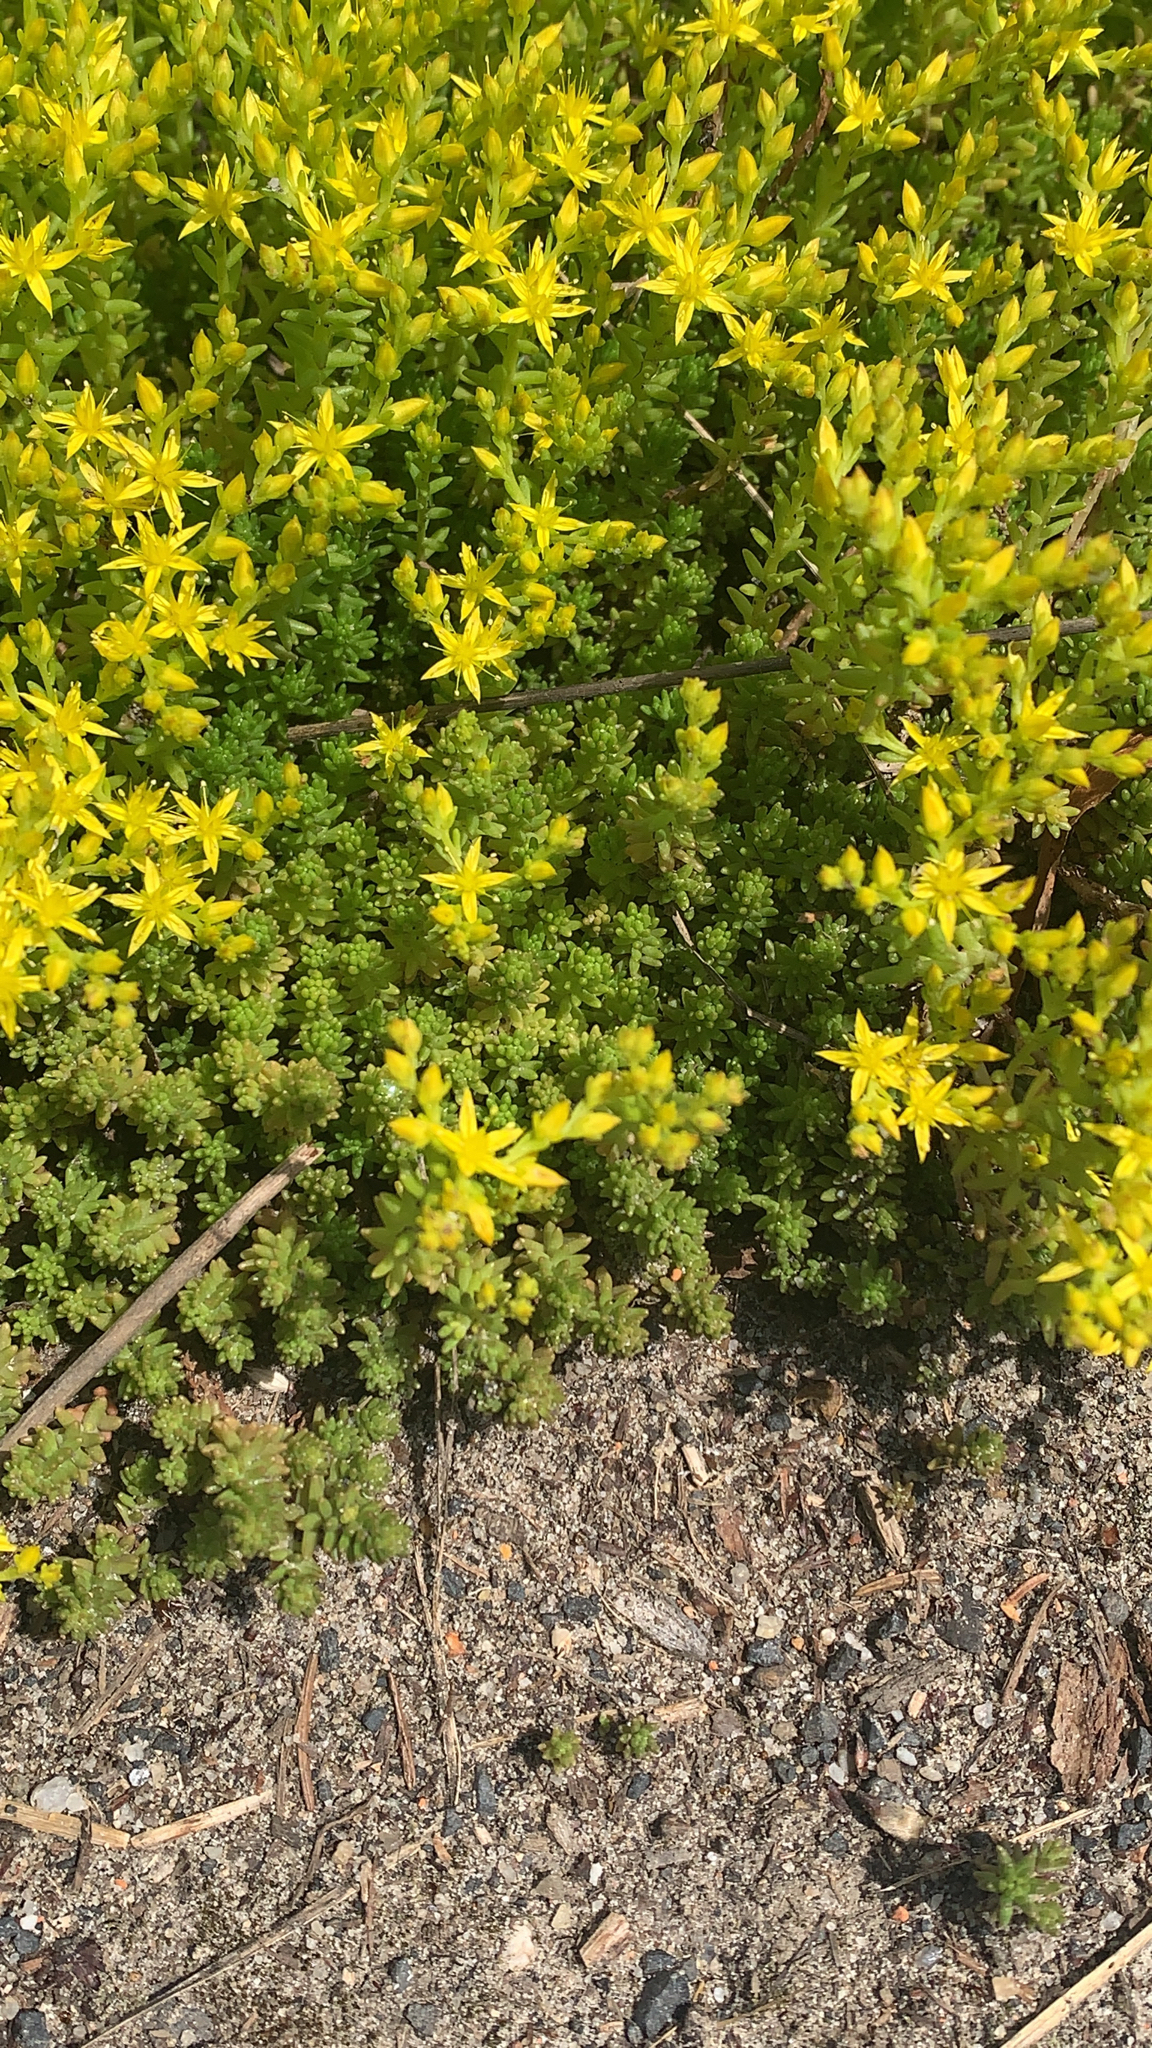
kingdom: Plantae
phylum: Tracheophyta
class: Magnoliopsida
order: Saxifragales
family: Crassulaceae
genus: Sedum
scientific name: Sedum sexangulare
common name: Tasteless stonecrop
